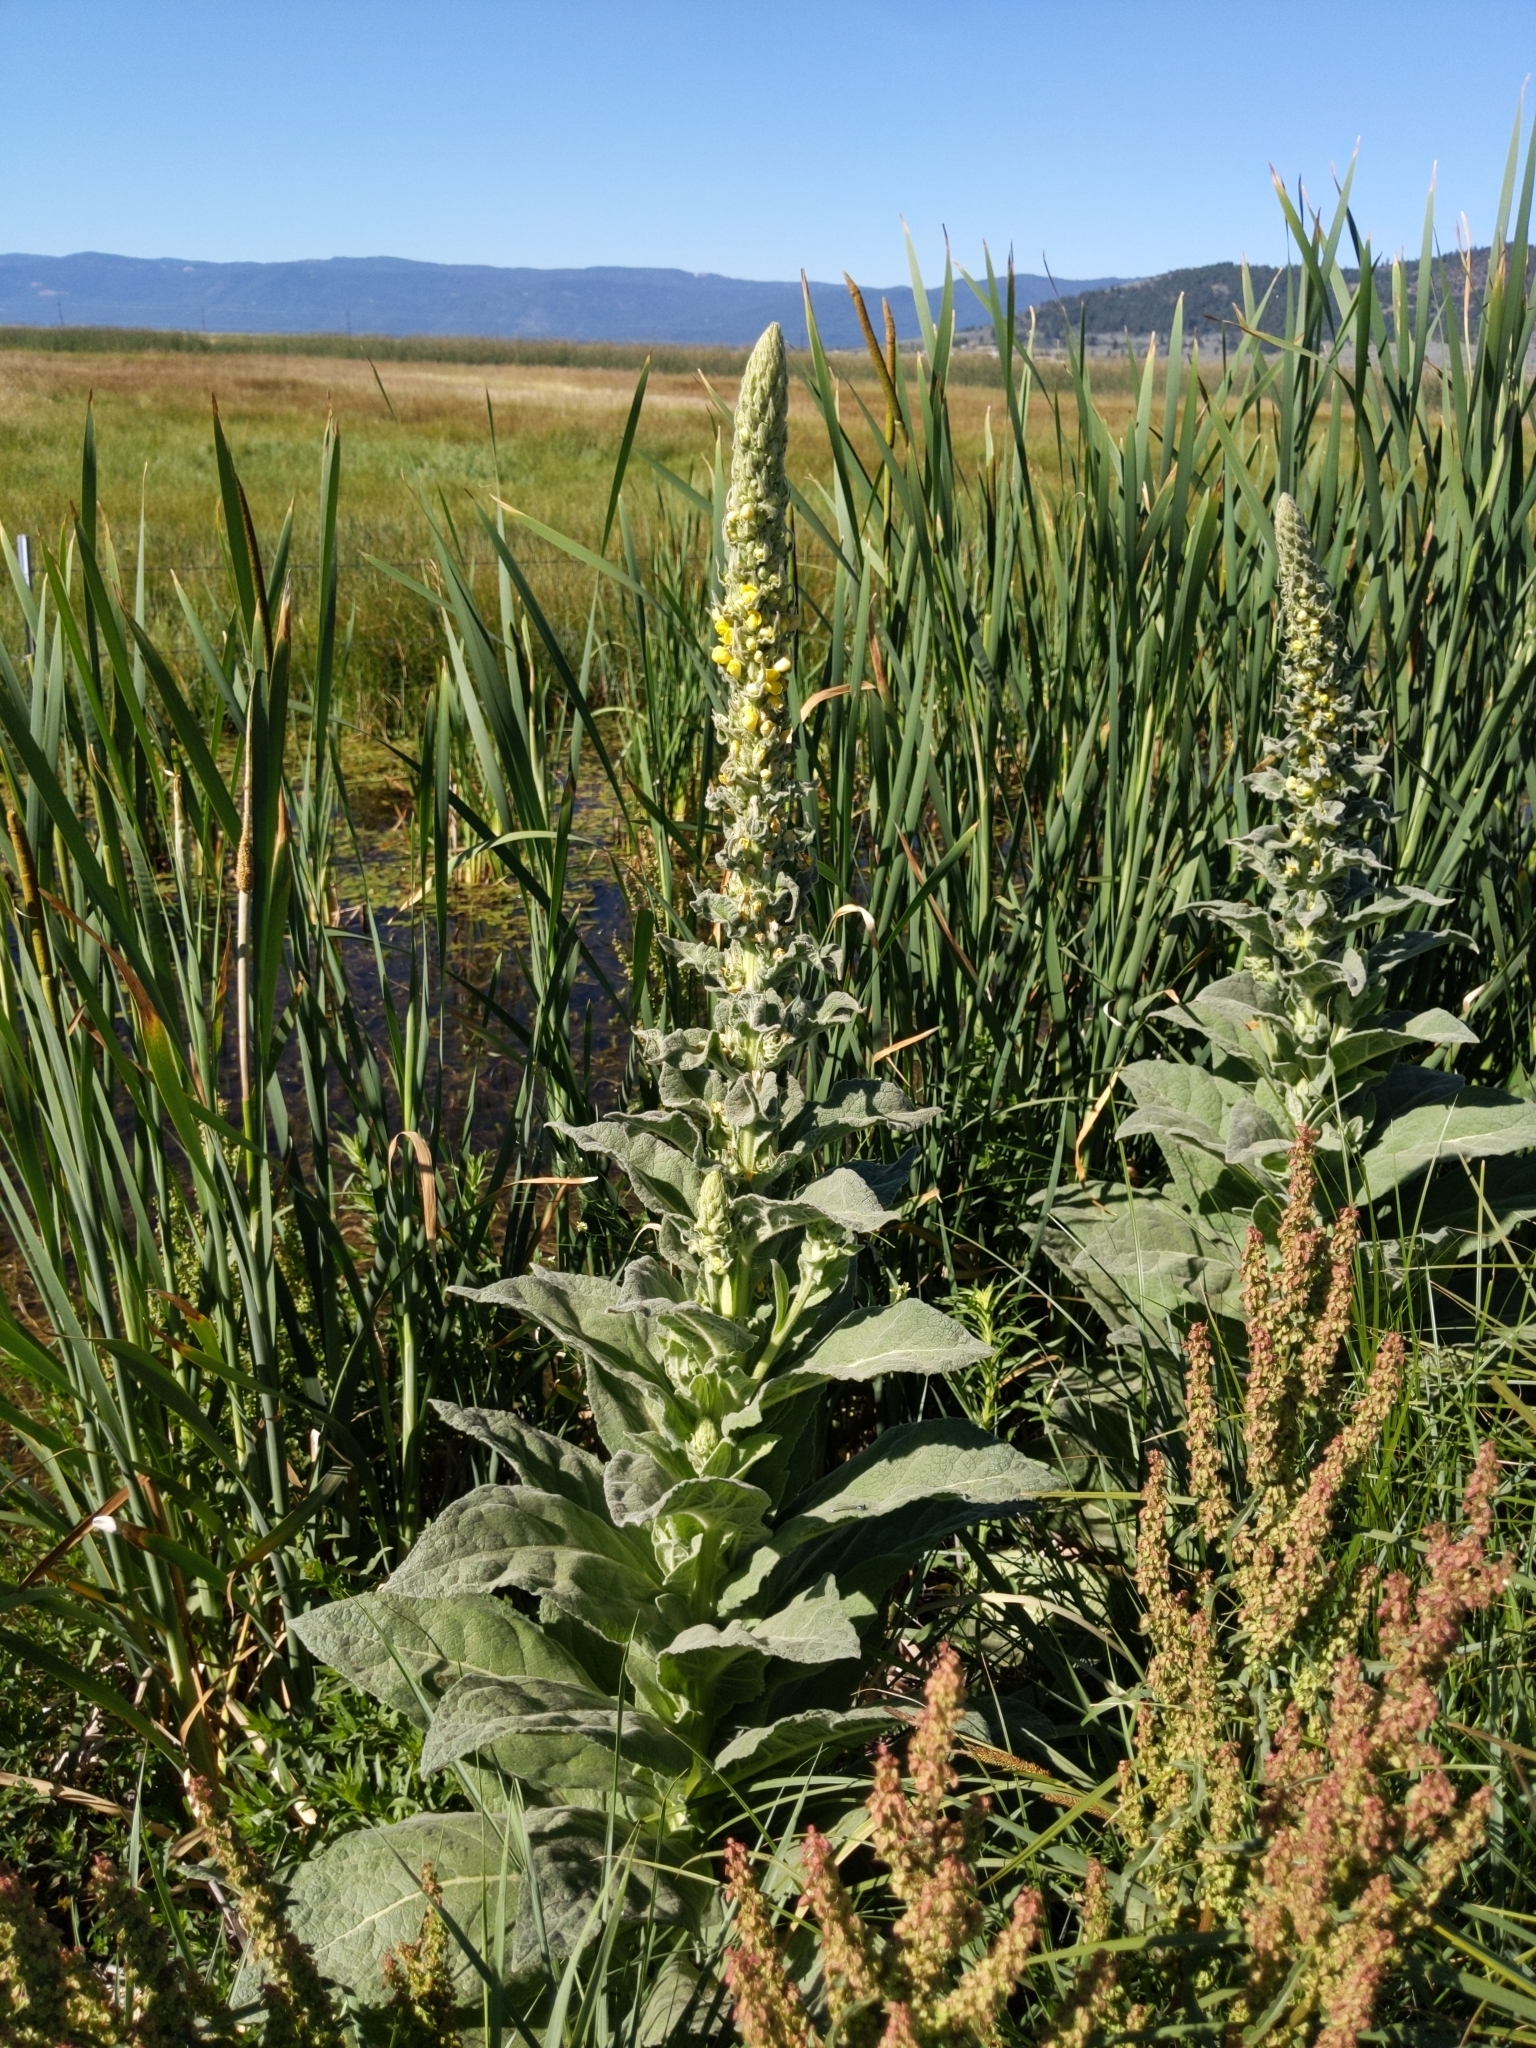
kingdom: Plantae
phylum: Tracheophyta
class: Magnoliopsida
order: Lamiales
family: Scrophulariaceae
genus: Verbascum
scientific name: Verbascum thapsus
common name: Common mullein
